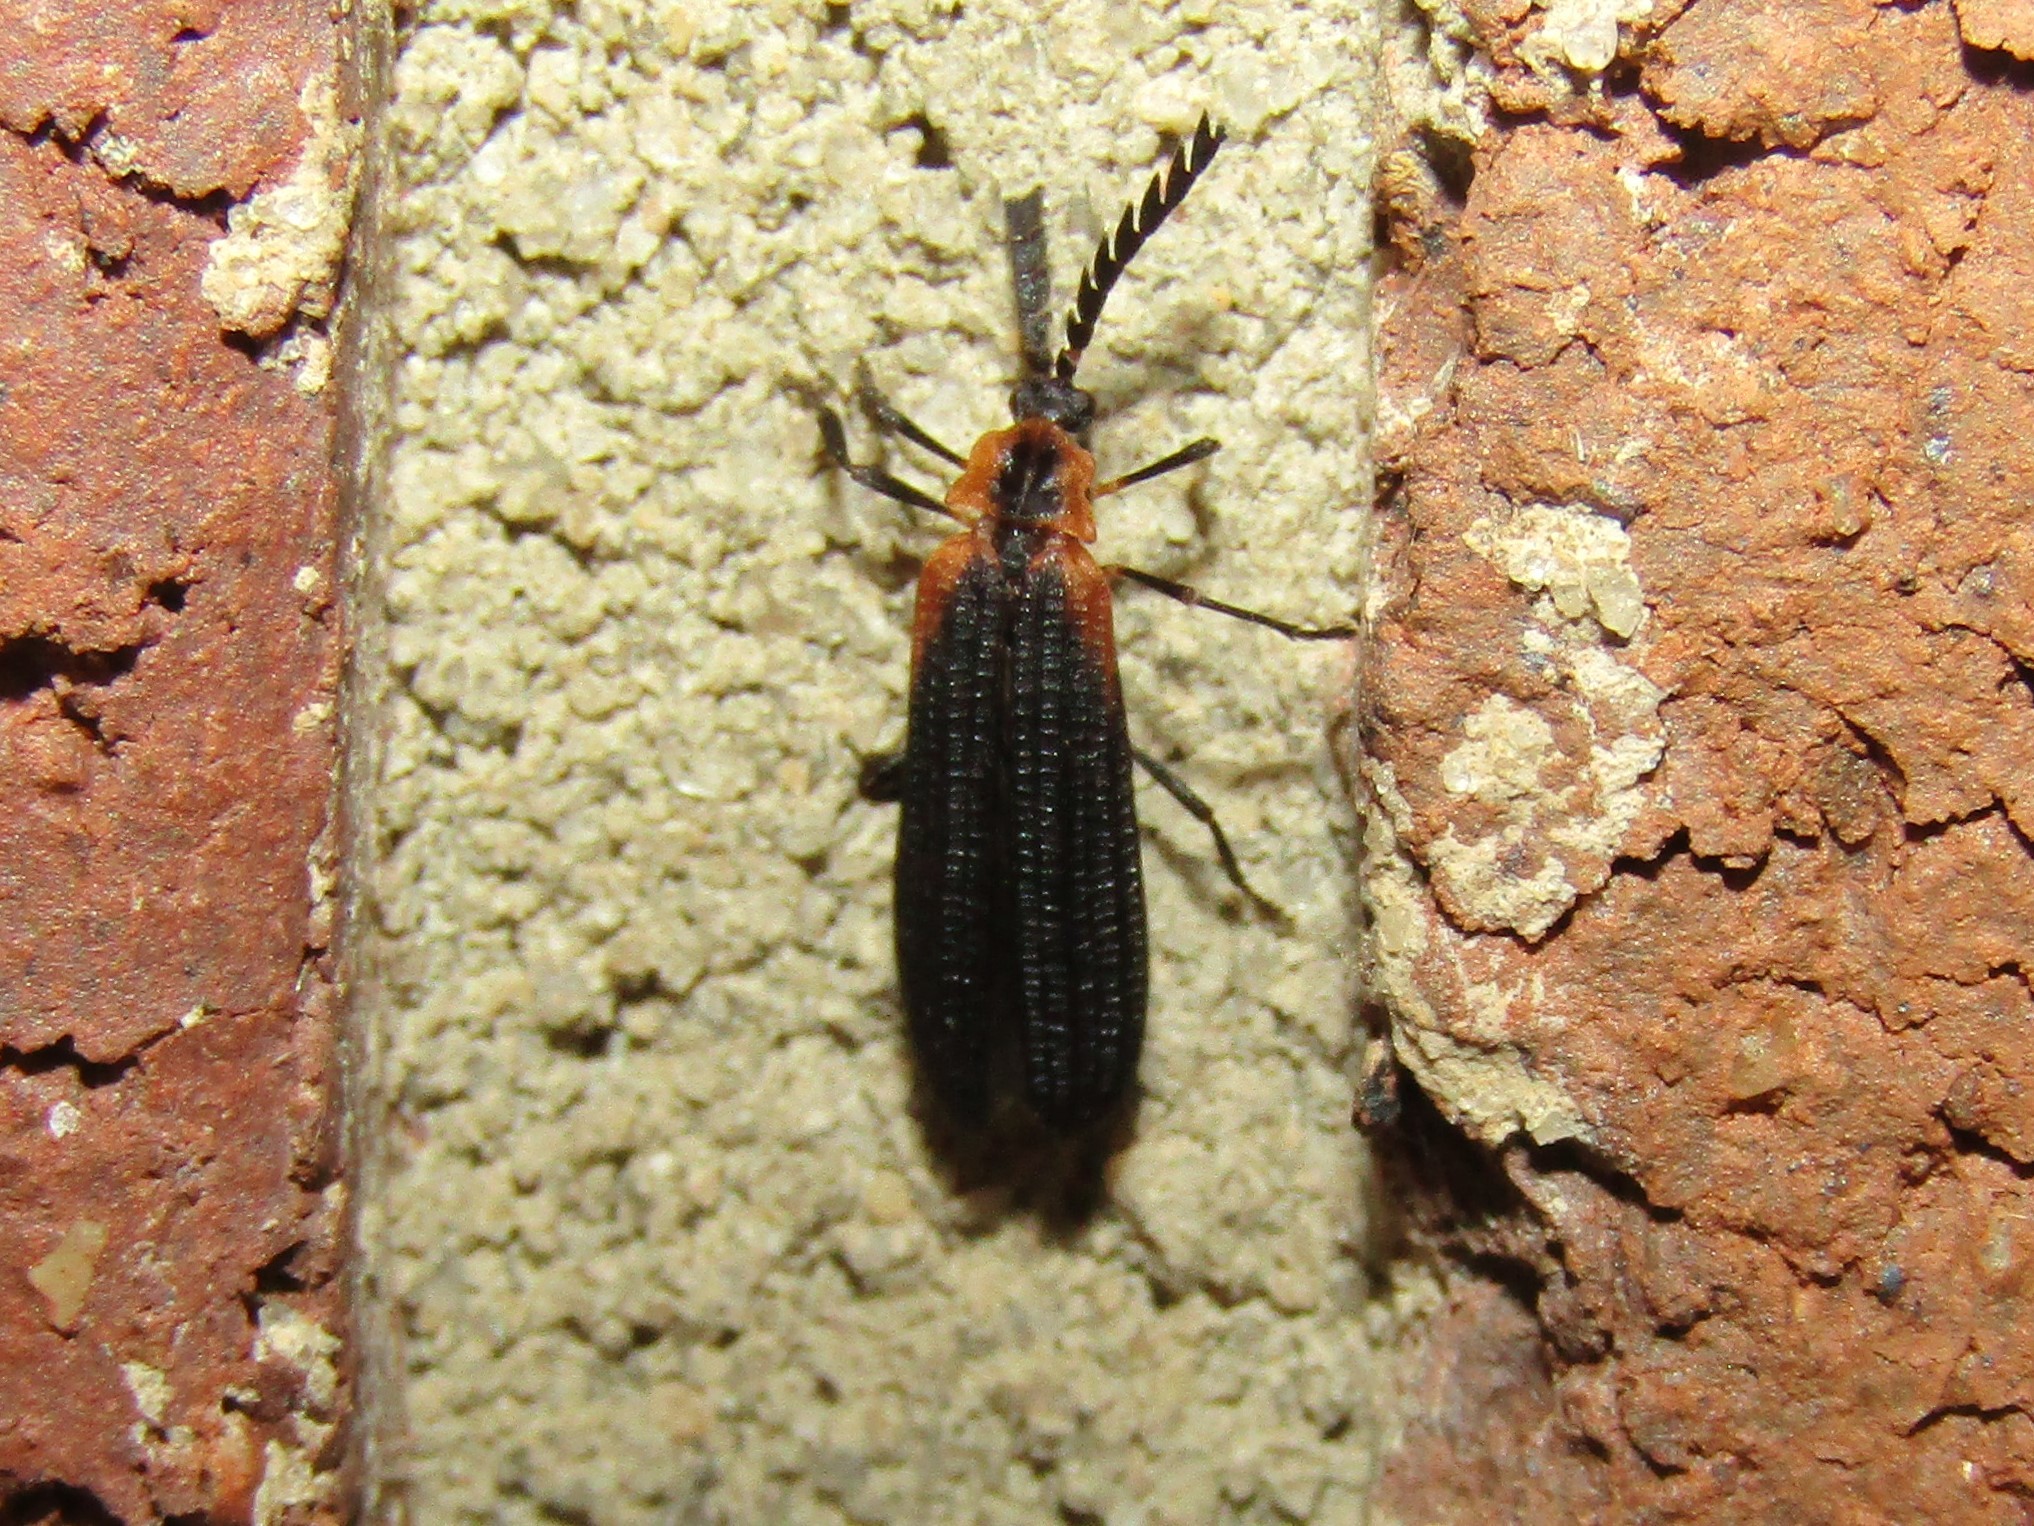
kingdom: Animalia
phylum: Arthropoda
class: Insecta
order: Coleoptera
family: Lycidae
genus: Leptoceletes
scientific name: Leptoceletes basalis
